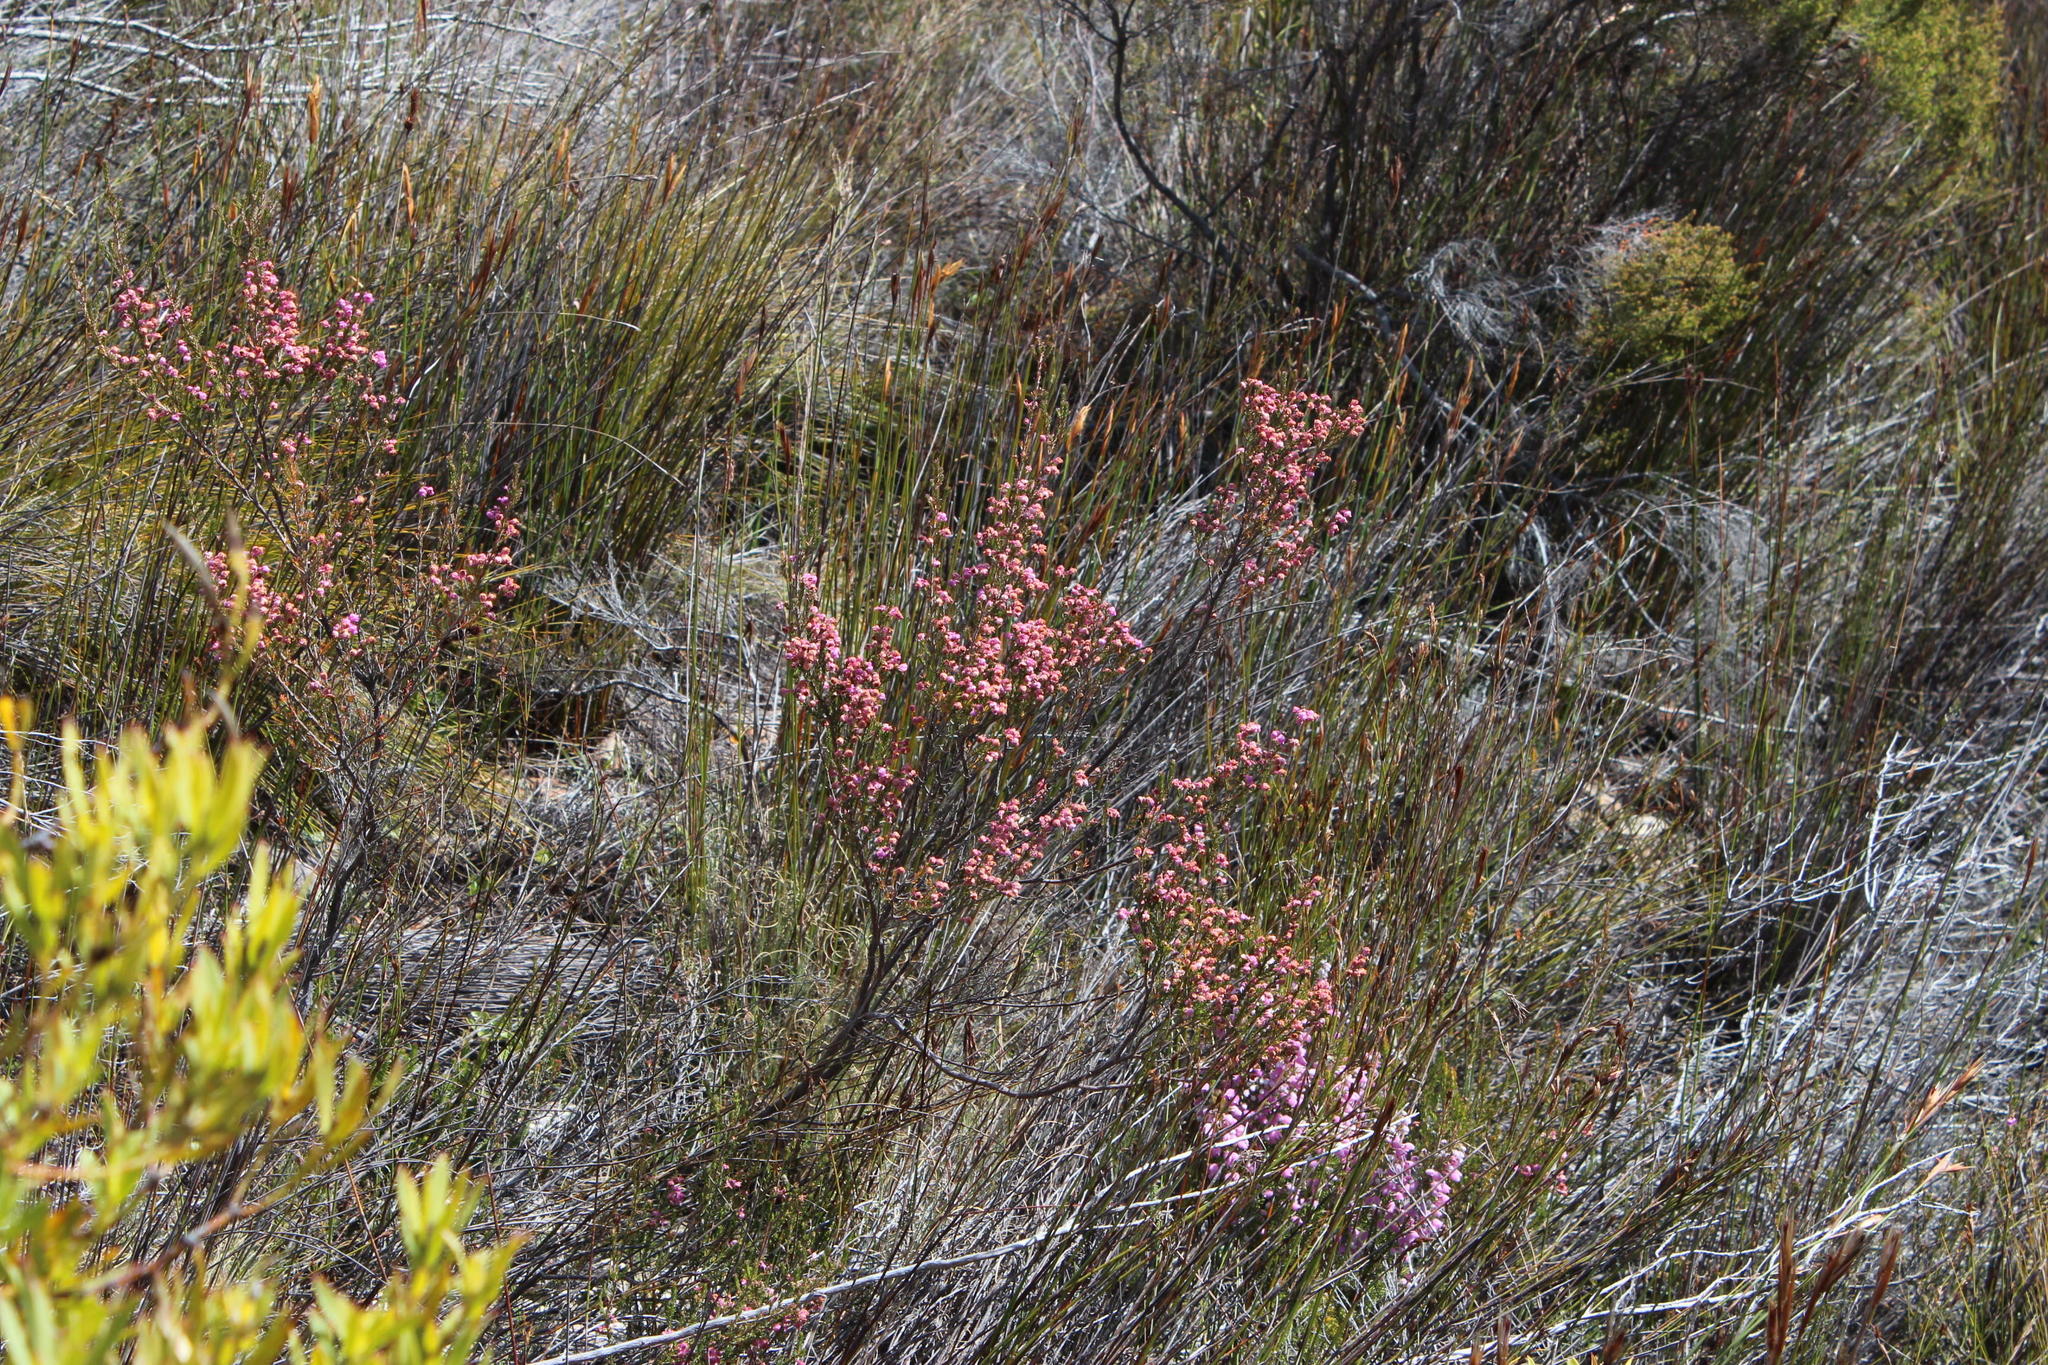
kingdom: Plantae
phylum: Tracheophyta
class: Magnoliopsida
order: Ericales
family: Ericaceae
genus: Erica
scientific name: Erica selaginifolia
